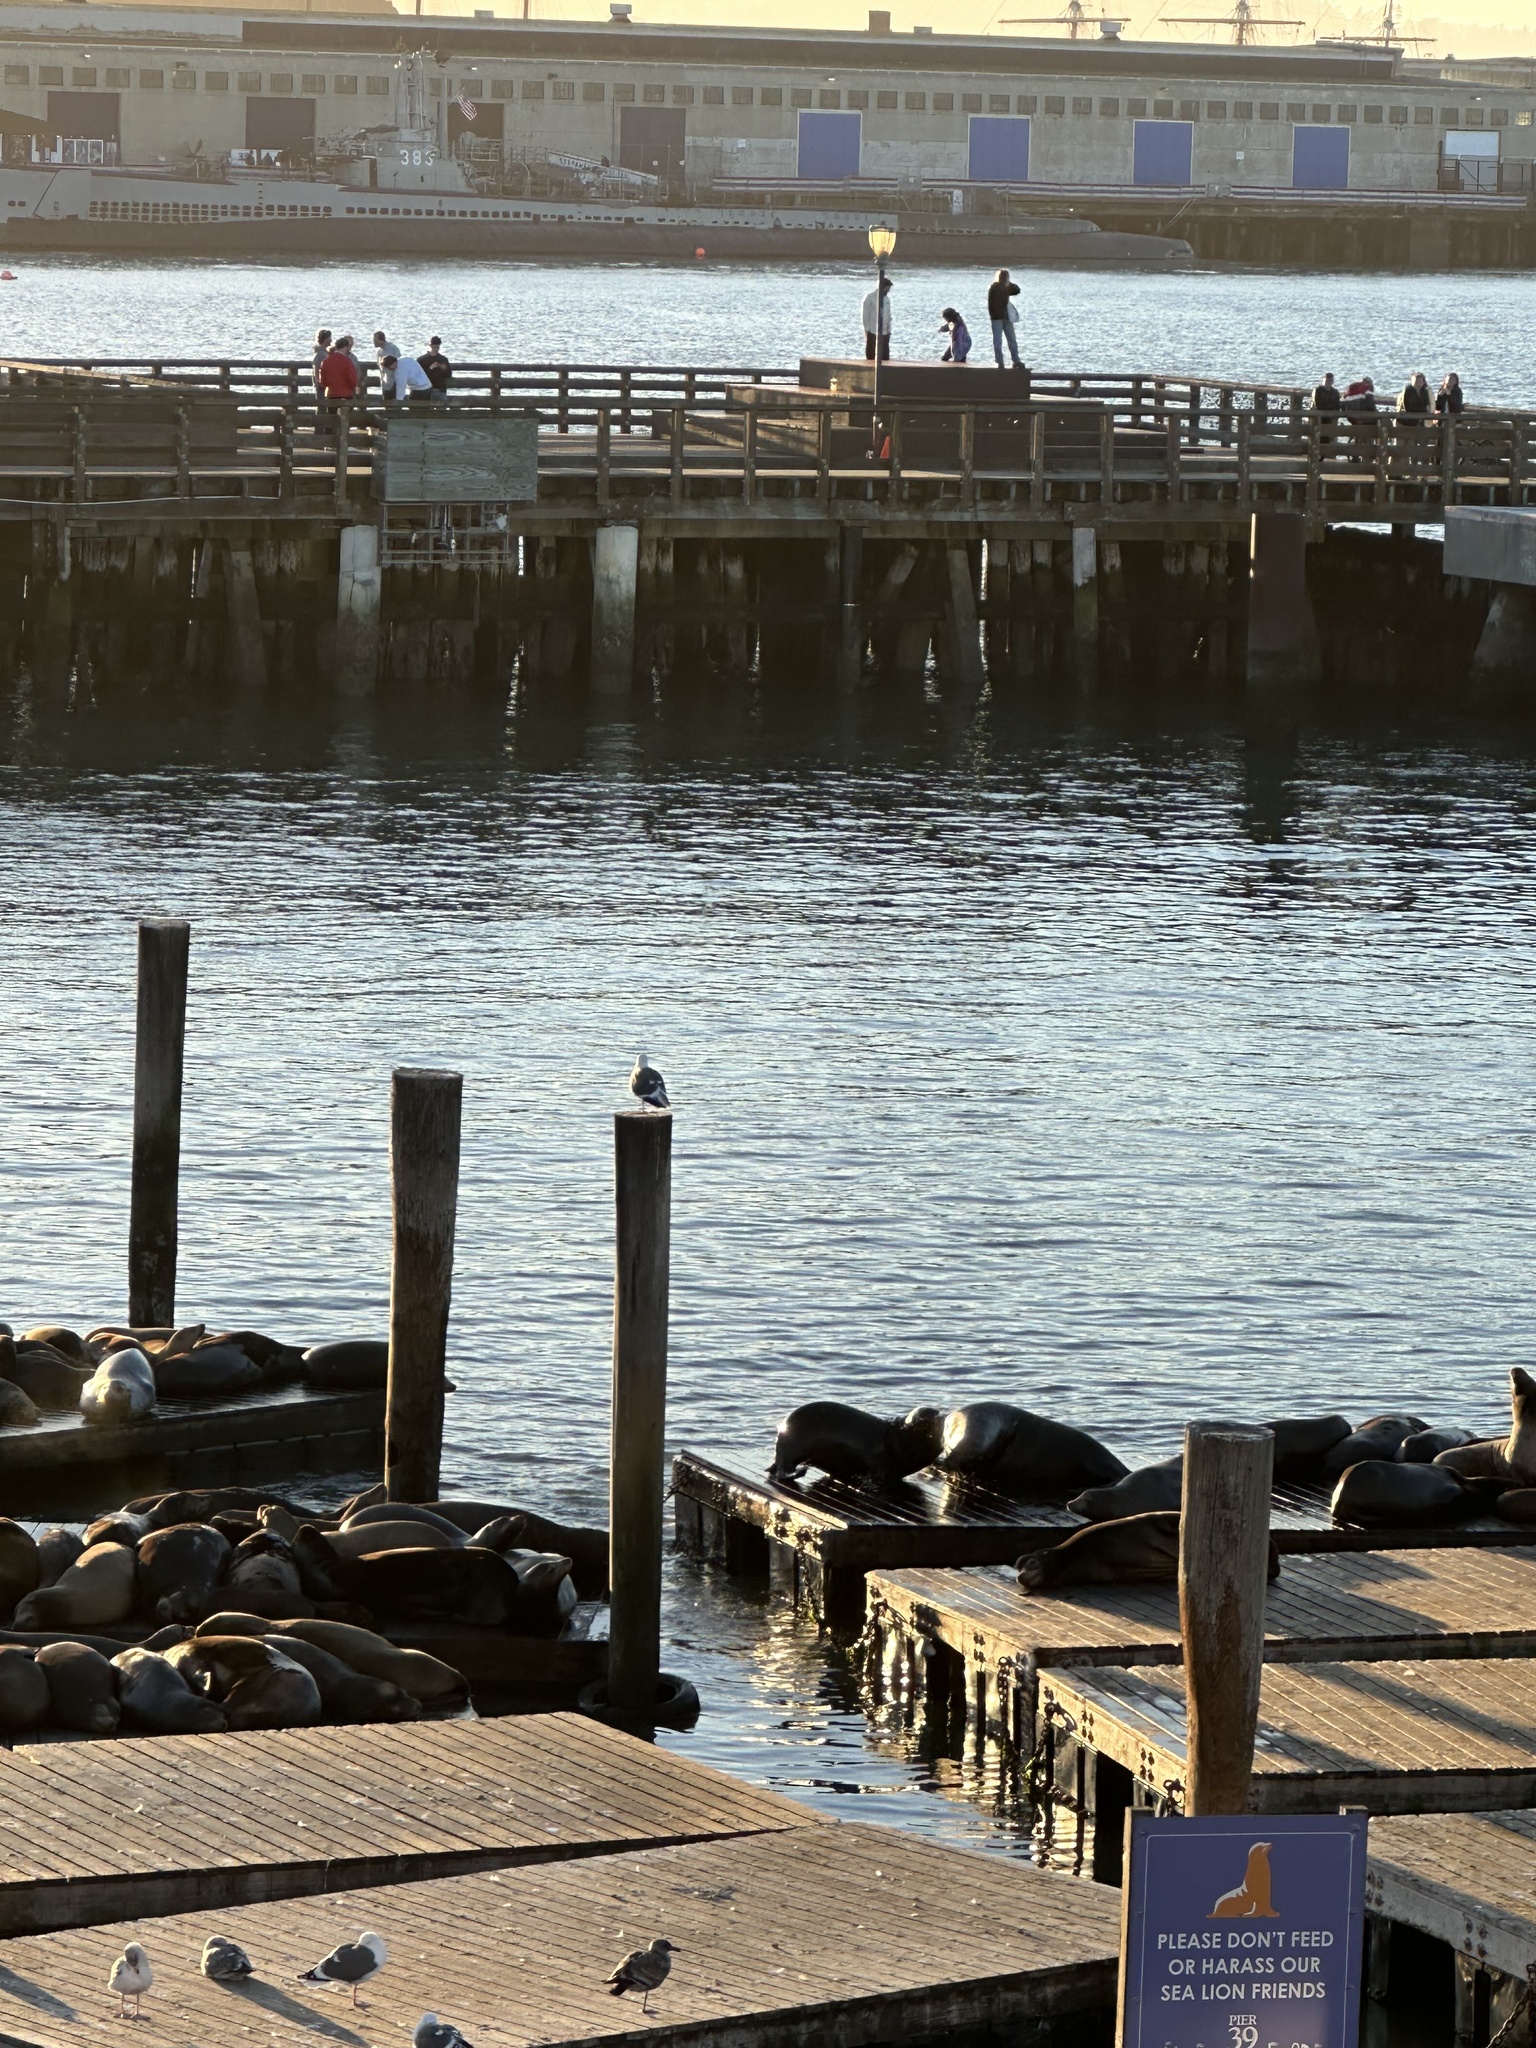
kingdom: Animalia
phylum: Chordata
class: Mammalia
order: Carnivora
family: Otariidae
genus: Zalophus
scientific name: Zalophus californianus
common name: California sea lion
